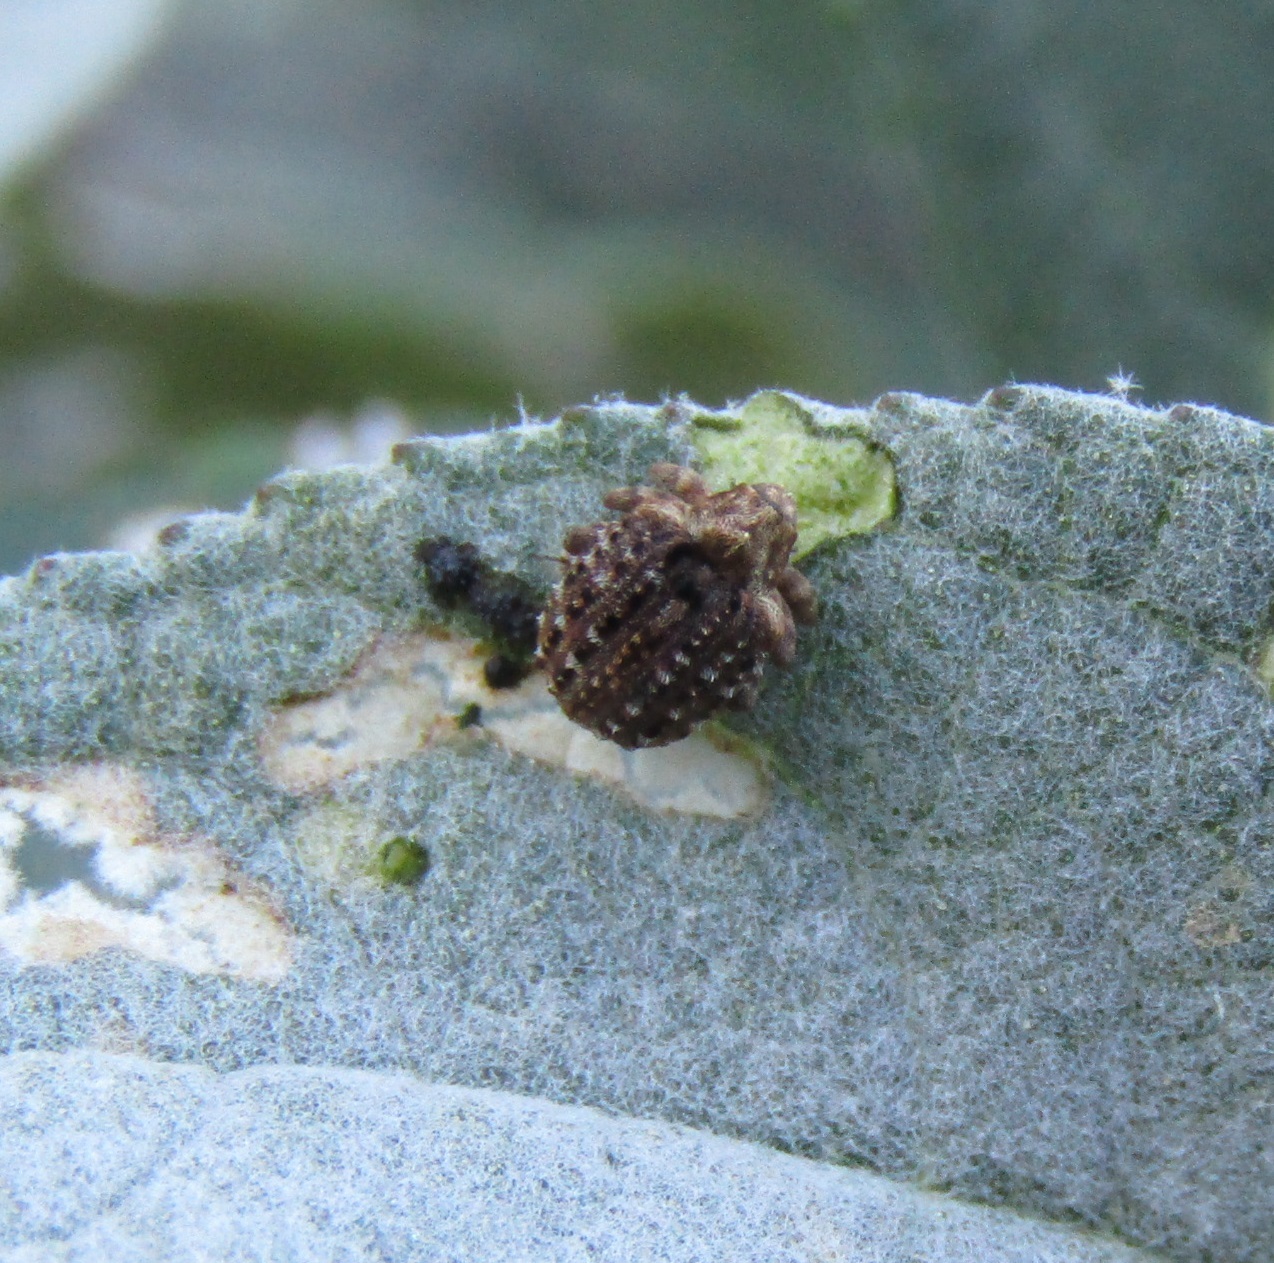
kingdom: Animalia
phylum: Arthropoda
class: Insecta
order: Coleoptera
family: Curculionidae
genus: Cleopus
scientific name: Cleopus japonicus
